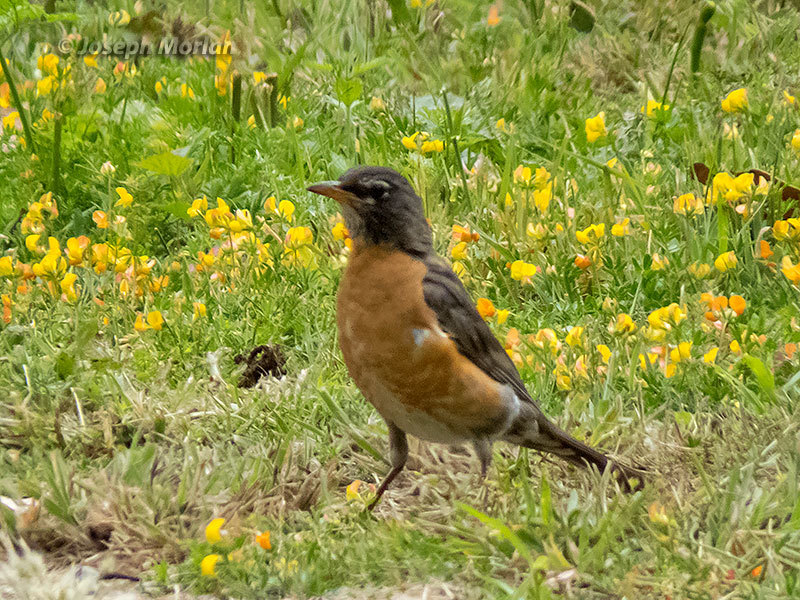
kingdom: Animalia
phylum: Chordata
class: Aves
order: Passeriformes
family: Turdidae
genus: Turdus
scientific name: Turdus migratorius
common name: American robin
